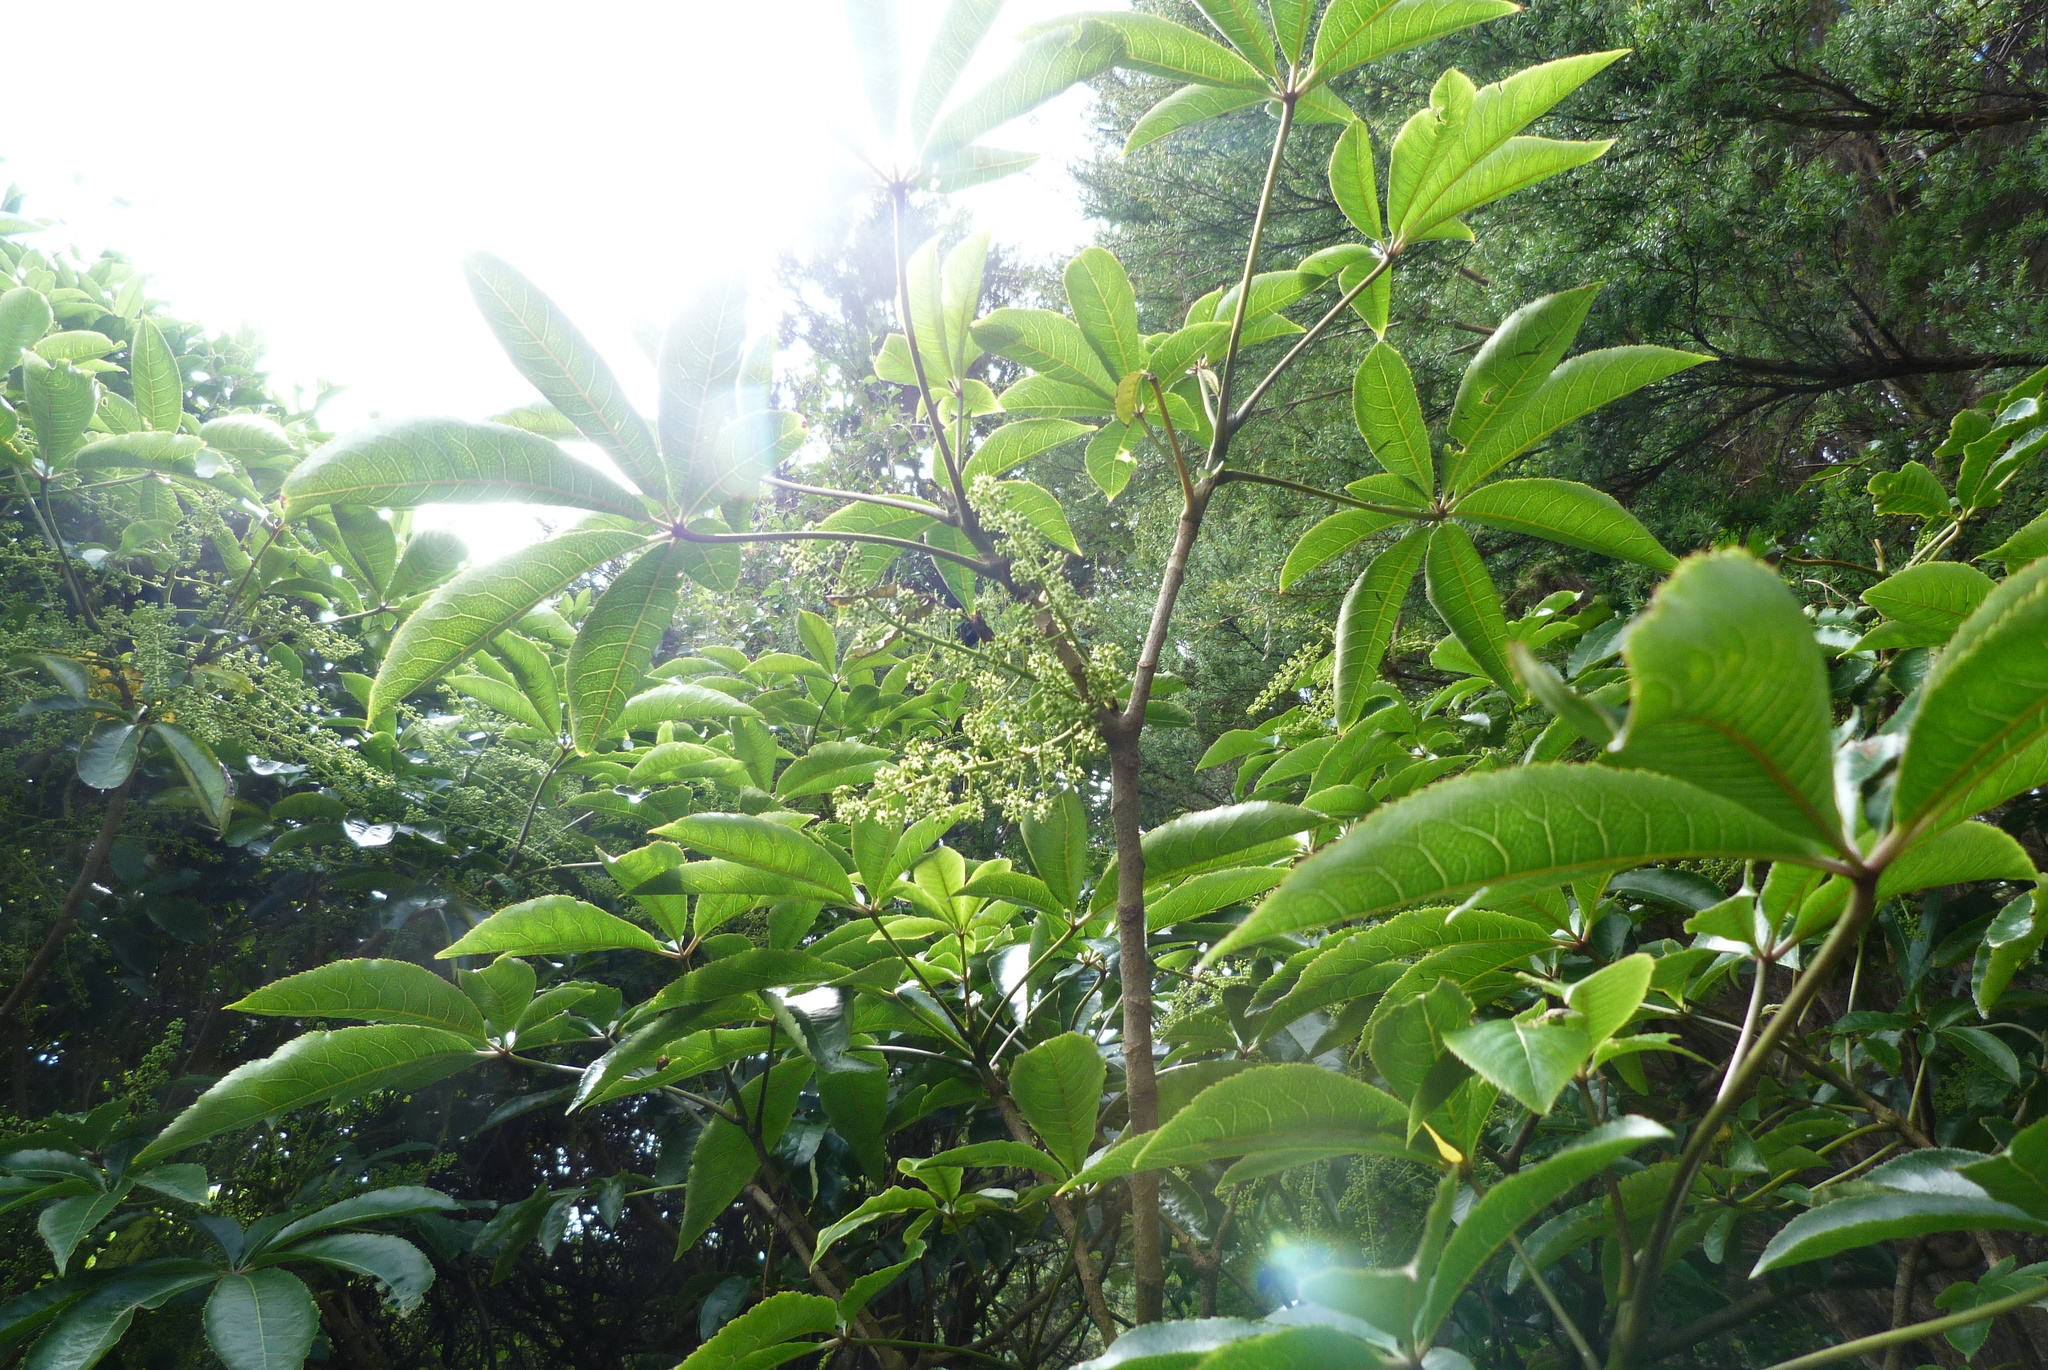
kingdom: Plantae
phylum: Tracheophyta
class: Magnoliopsida
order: Apiales
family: Araliaceae
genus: Schefflera
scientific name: Schefflera digitata
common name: Pate
